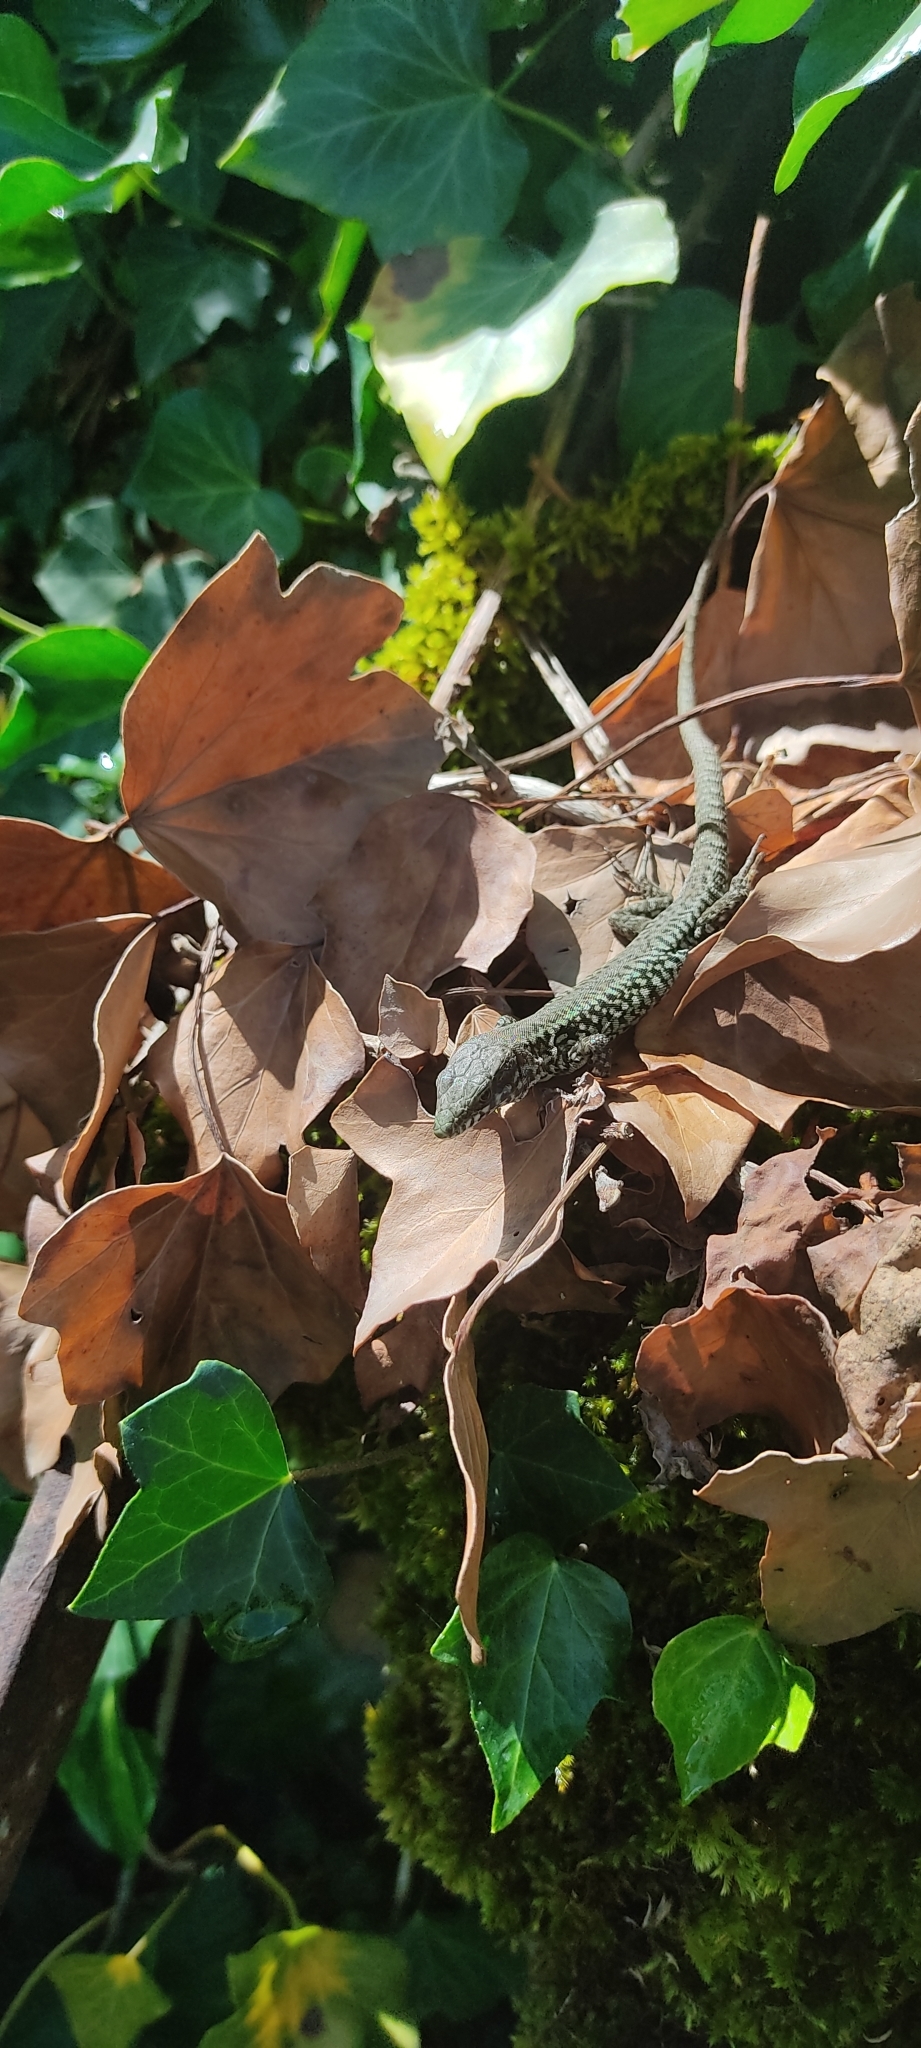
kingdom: Animalia
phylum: Chordata
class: Squamata
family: Lacertidae
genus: Podarcis
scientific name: Podarcis muralis
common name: Common wall lizard
